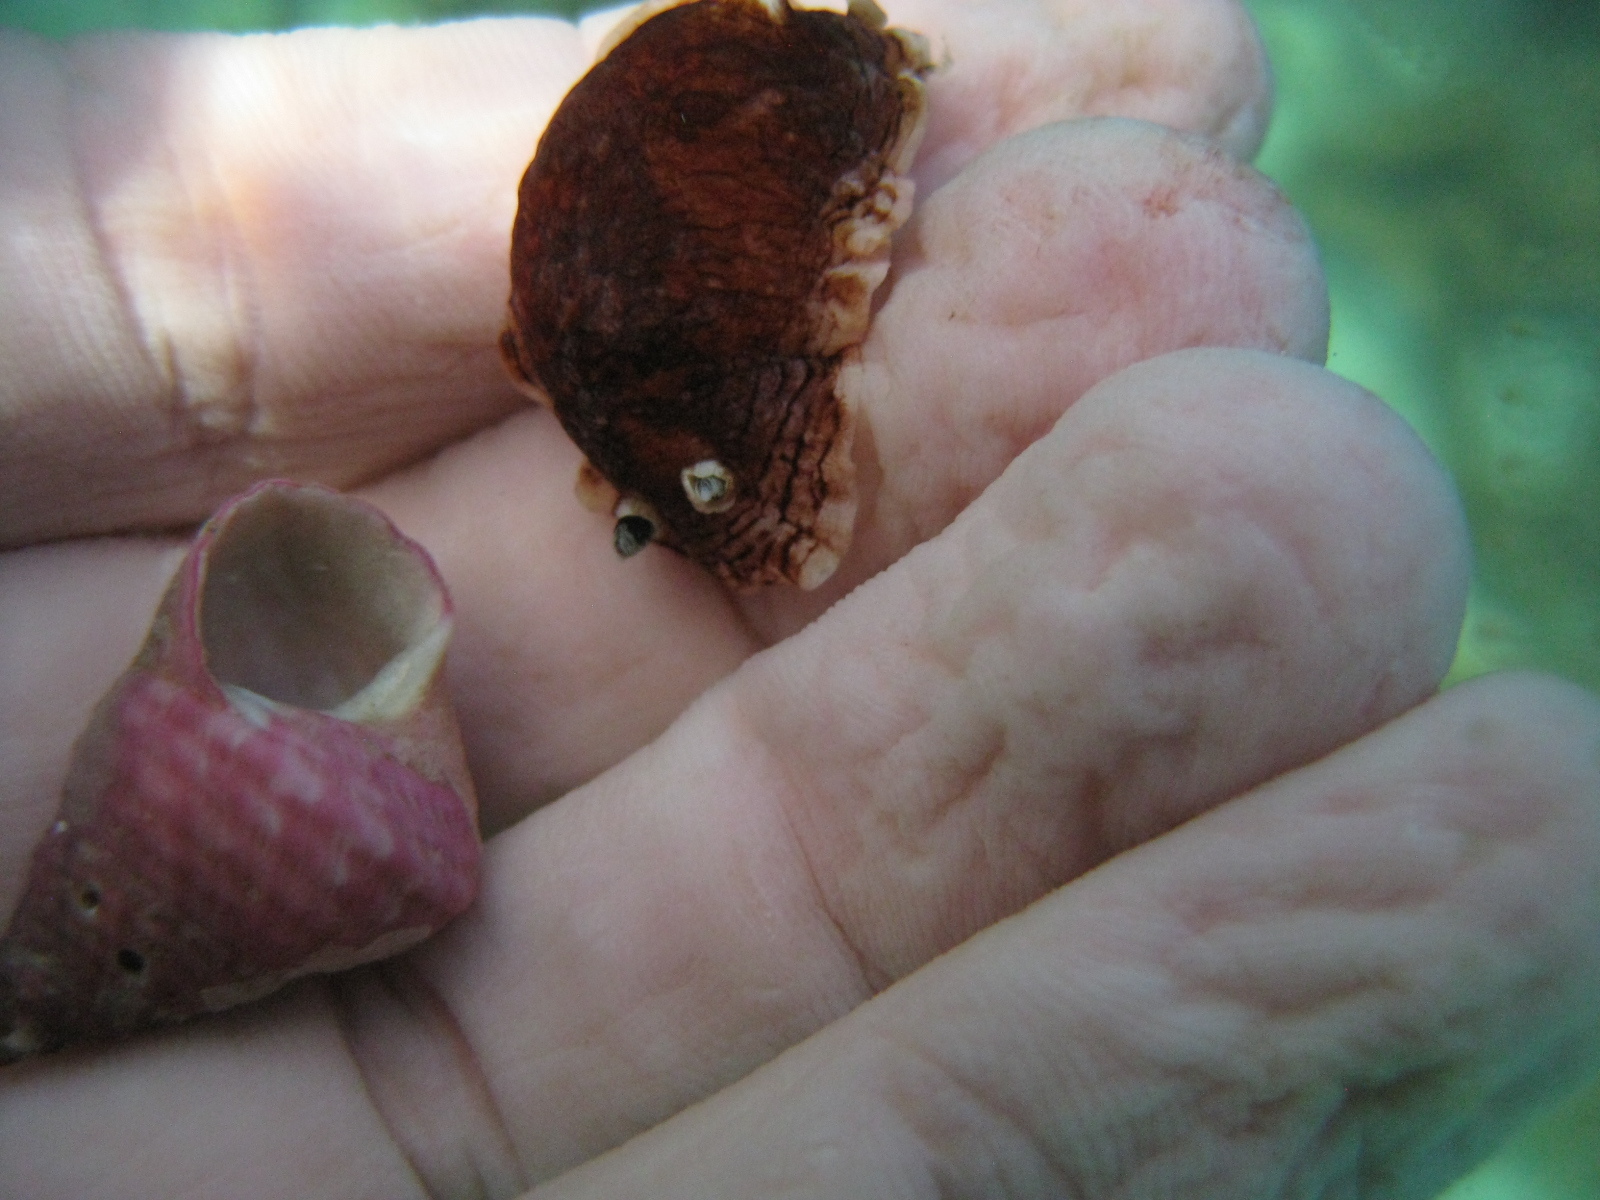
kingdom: Animalia
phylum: Mollusca
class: Gastropoda
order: Trochida
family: Trochidae
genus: Micrelenchus
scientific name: Micrelenchus purpureus
